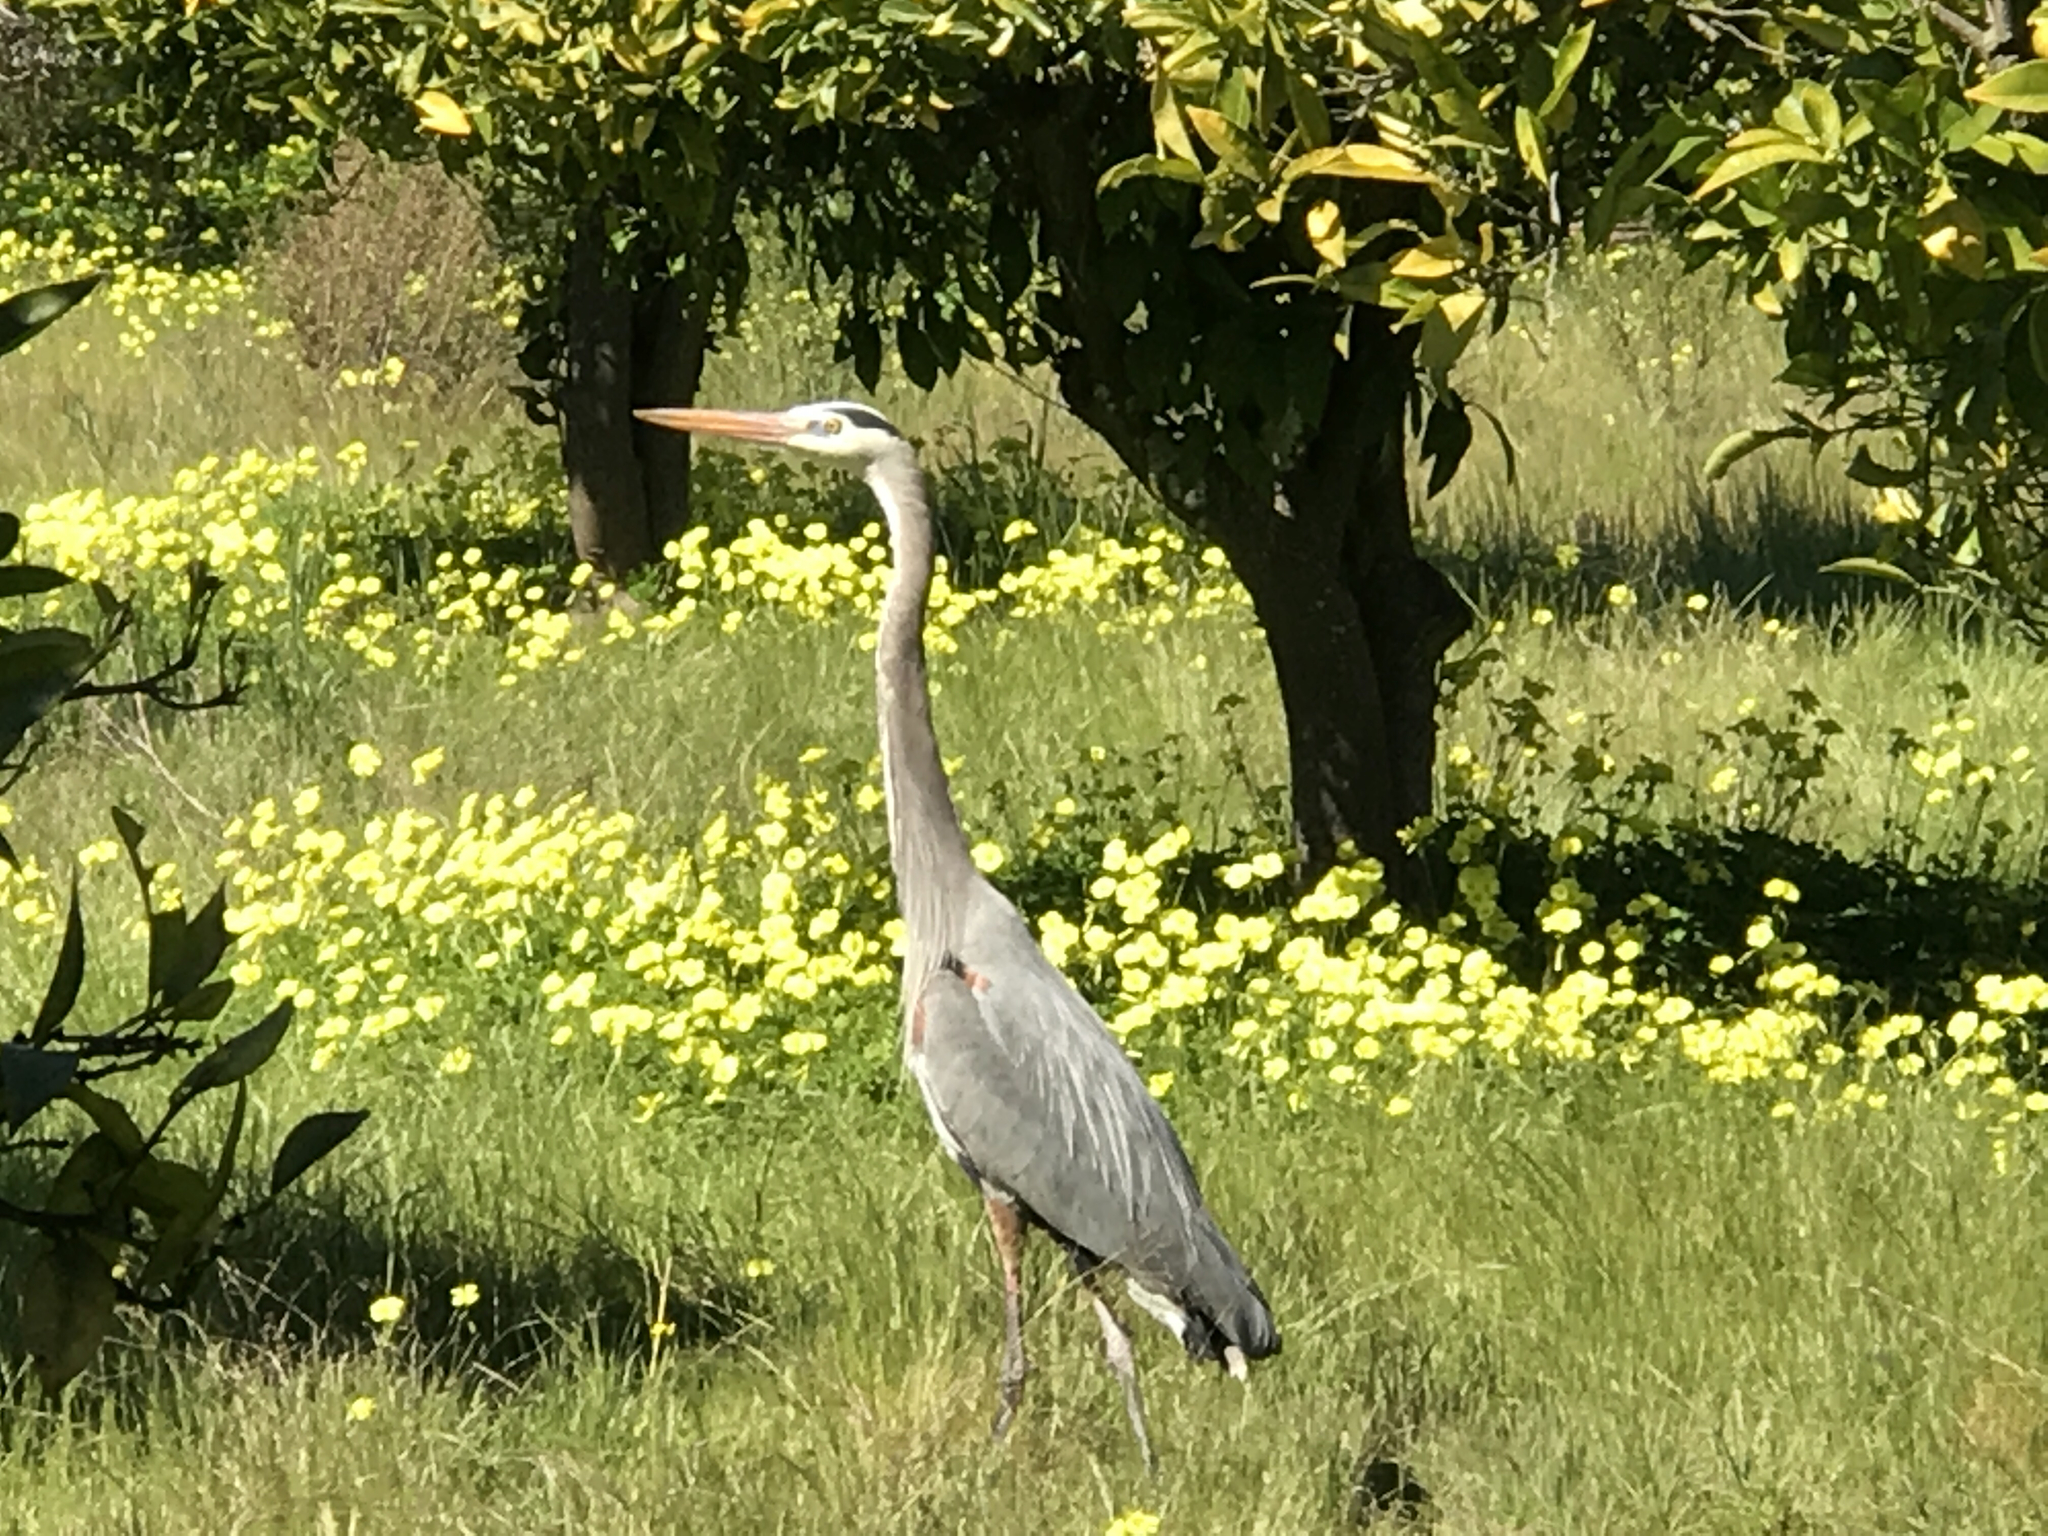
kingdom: Animalia
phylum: Chordata
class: Aves
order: Pelecaniformes
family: Ardeidae
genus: Ardea
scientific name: Ardea herodias
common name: Great blue heron
